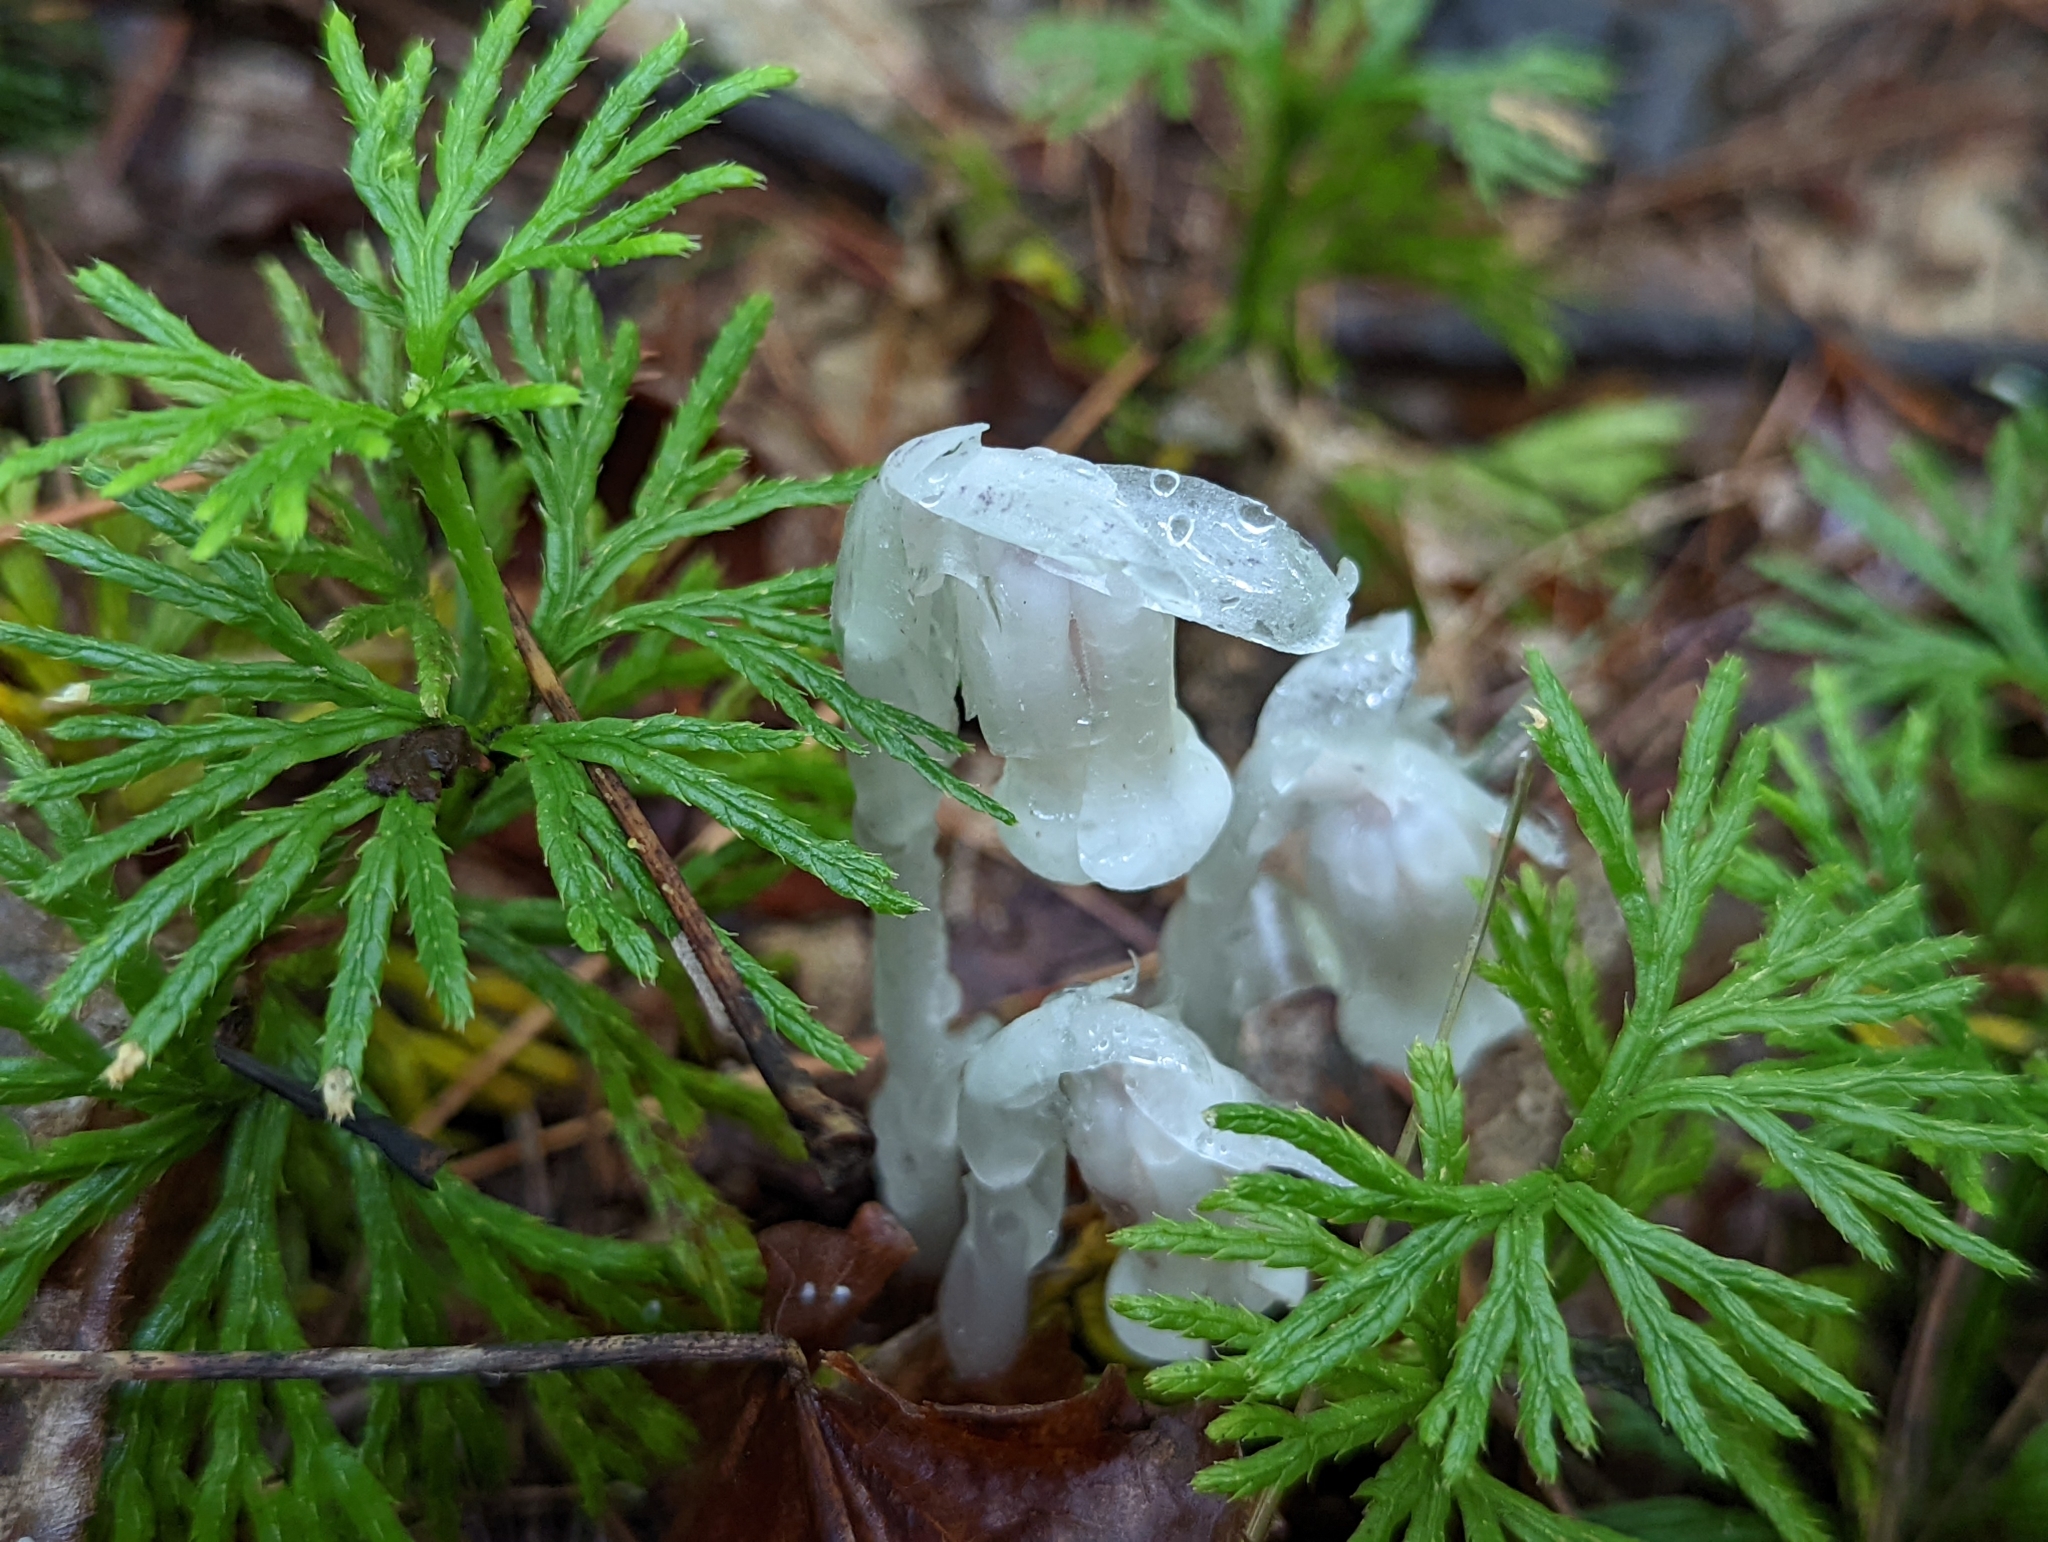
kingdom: Plantae
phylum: Tracheophyta
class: Magnoliopsida
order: Ericales
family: Ericaceae
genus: Monotropa
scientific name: Monotropa uniflora
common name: Convulsion root
